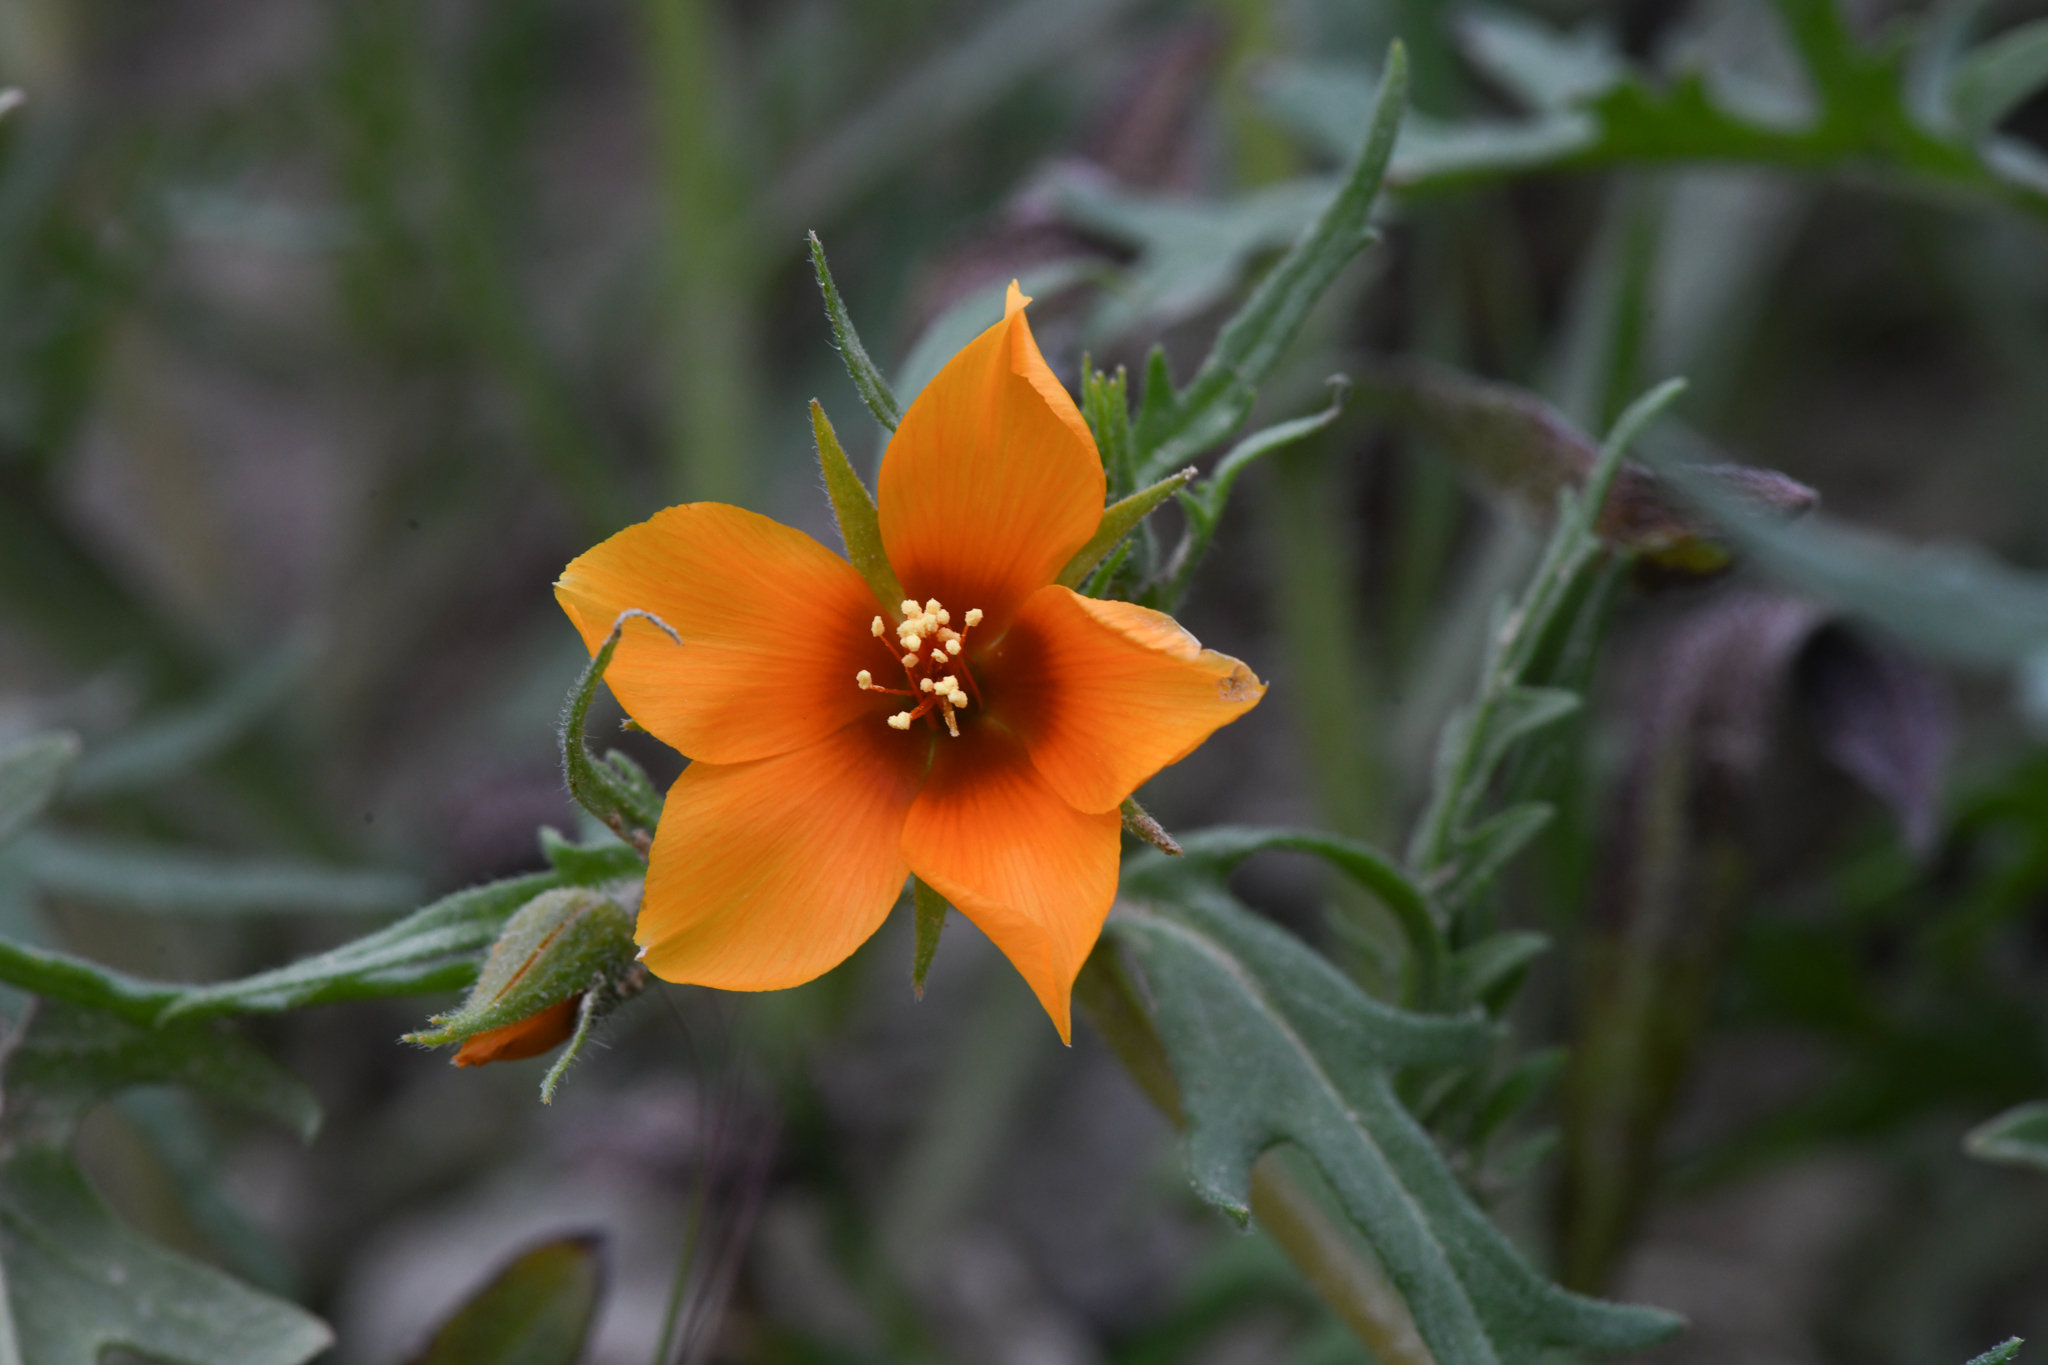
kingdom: Plantae
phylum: Tracheophyta
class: Magnoliopsida
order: Cornales
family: Loasaceae
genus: Mentzelia
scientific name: Mentzelia pectinata
